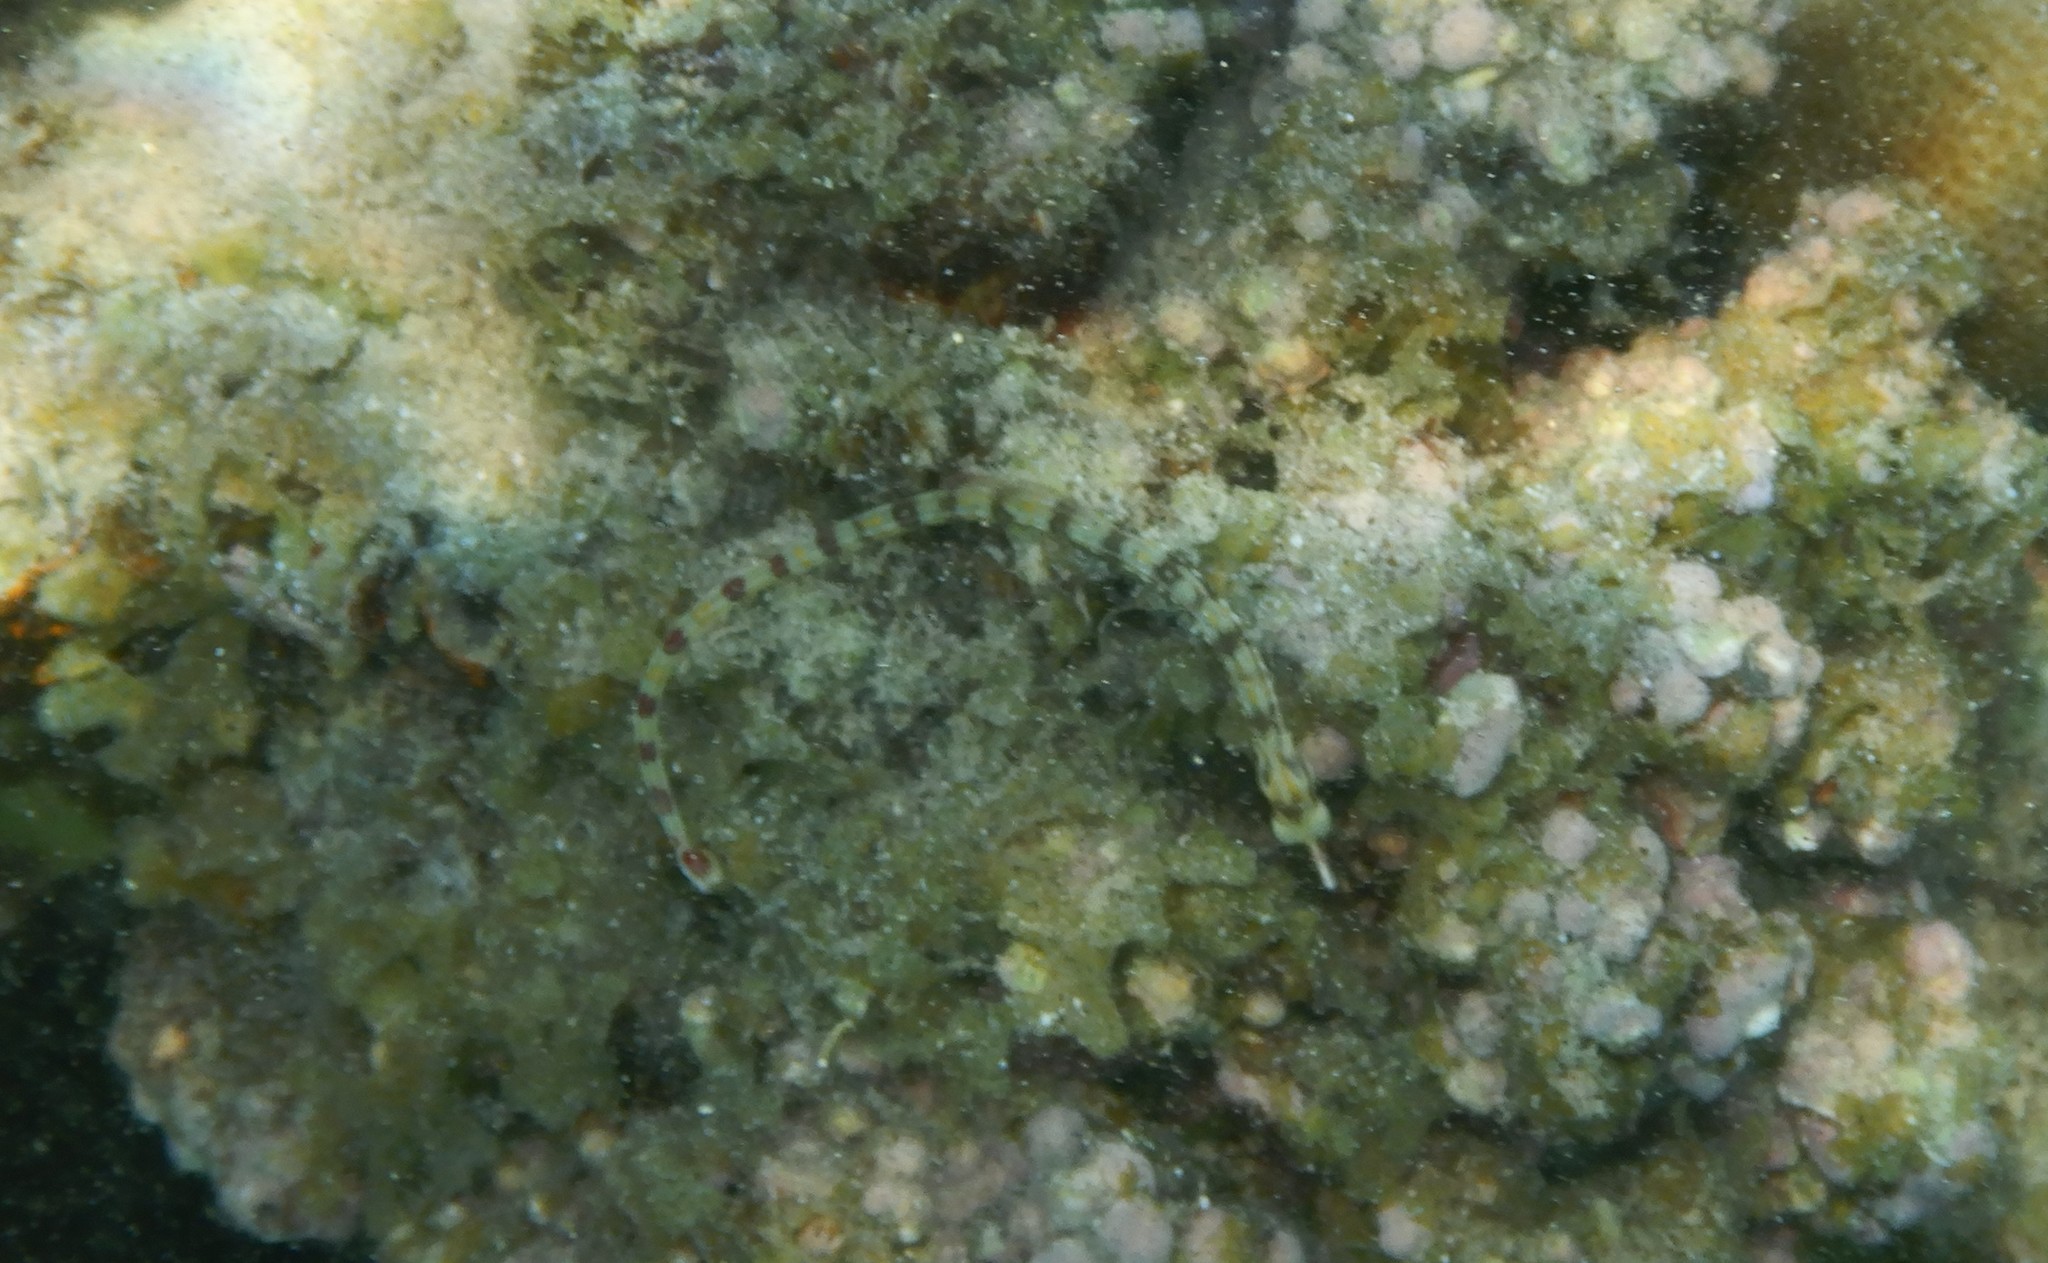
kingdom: Animalia
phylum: Chordata
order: Syngnathiformes
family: Syngnathidae
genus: Corythoichthys
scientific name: Corythoichthys flavofasciatus
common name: Banded pipefish
